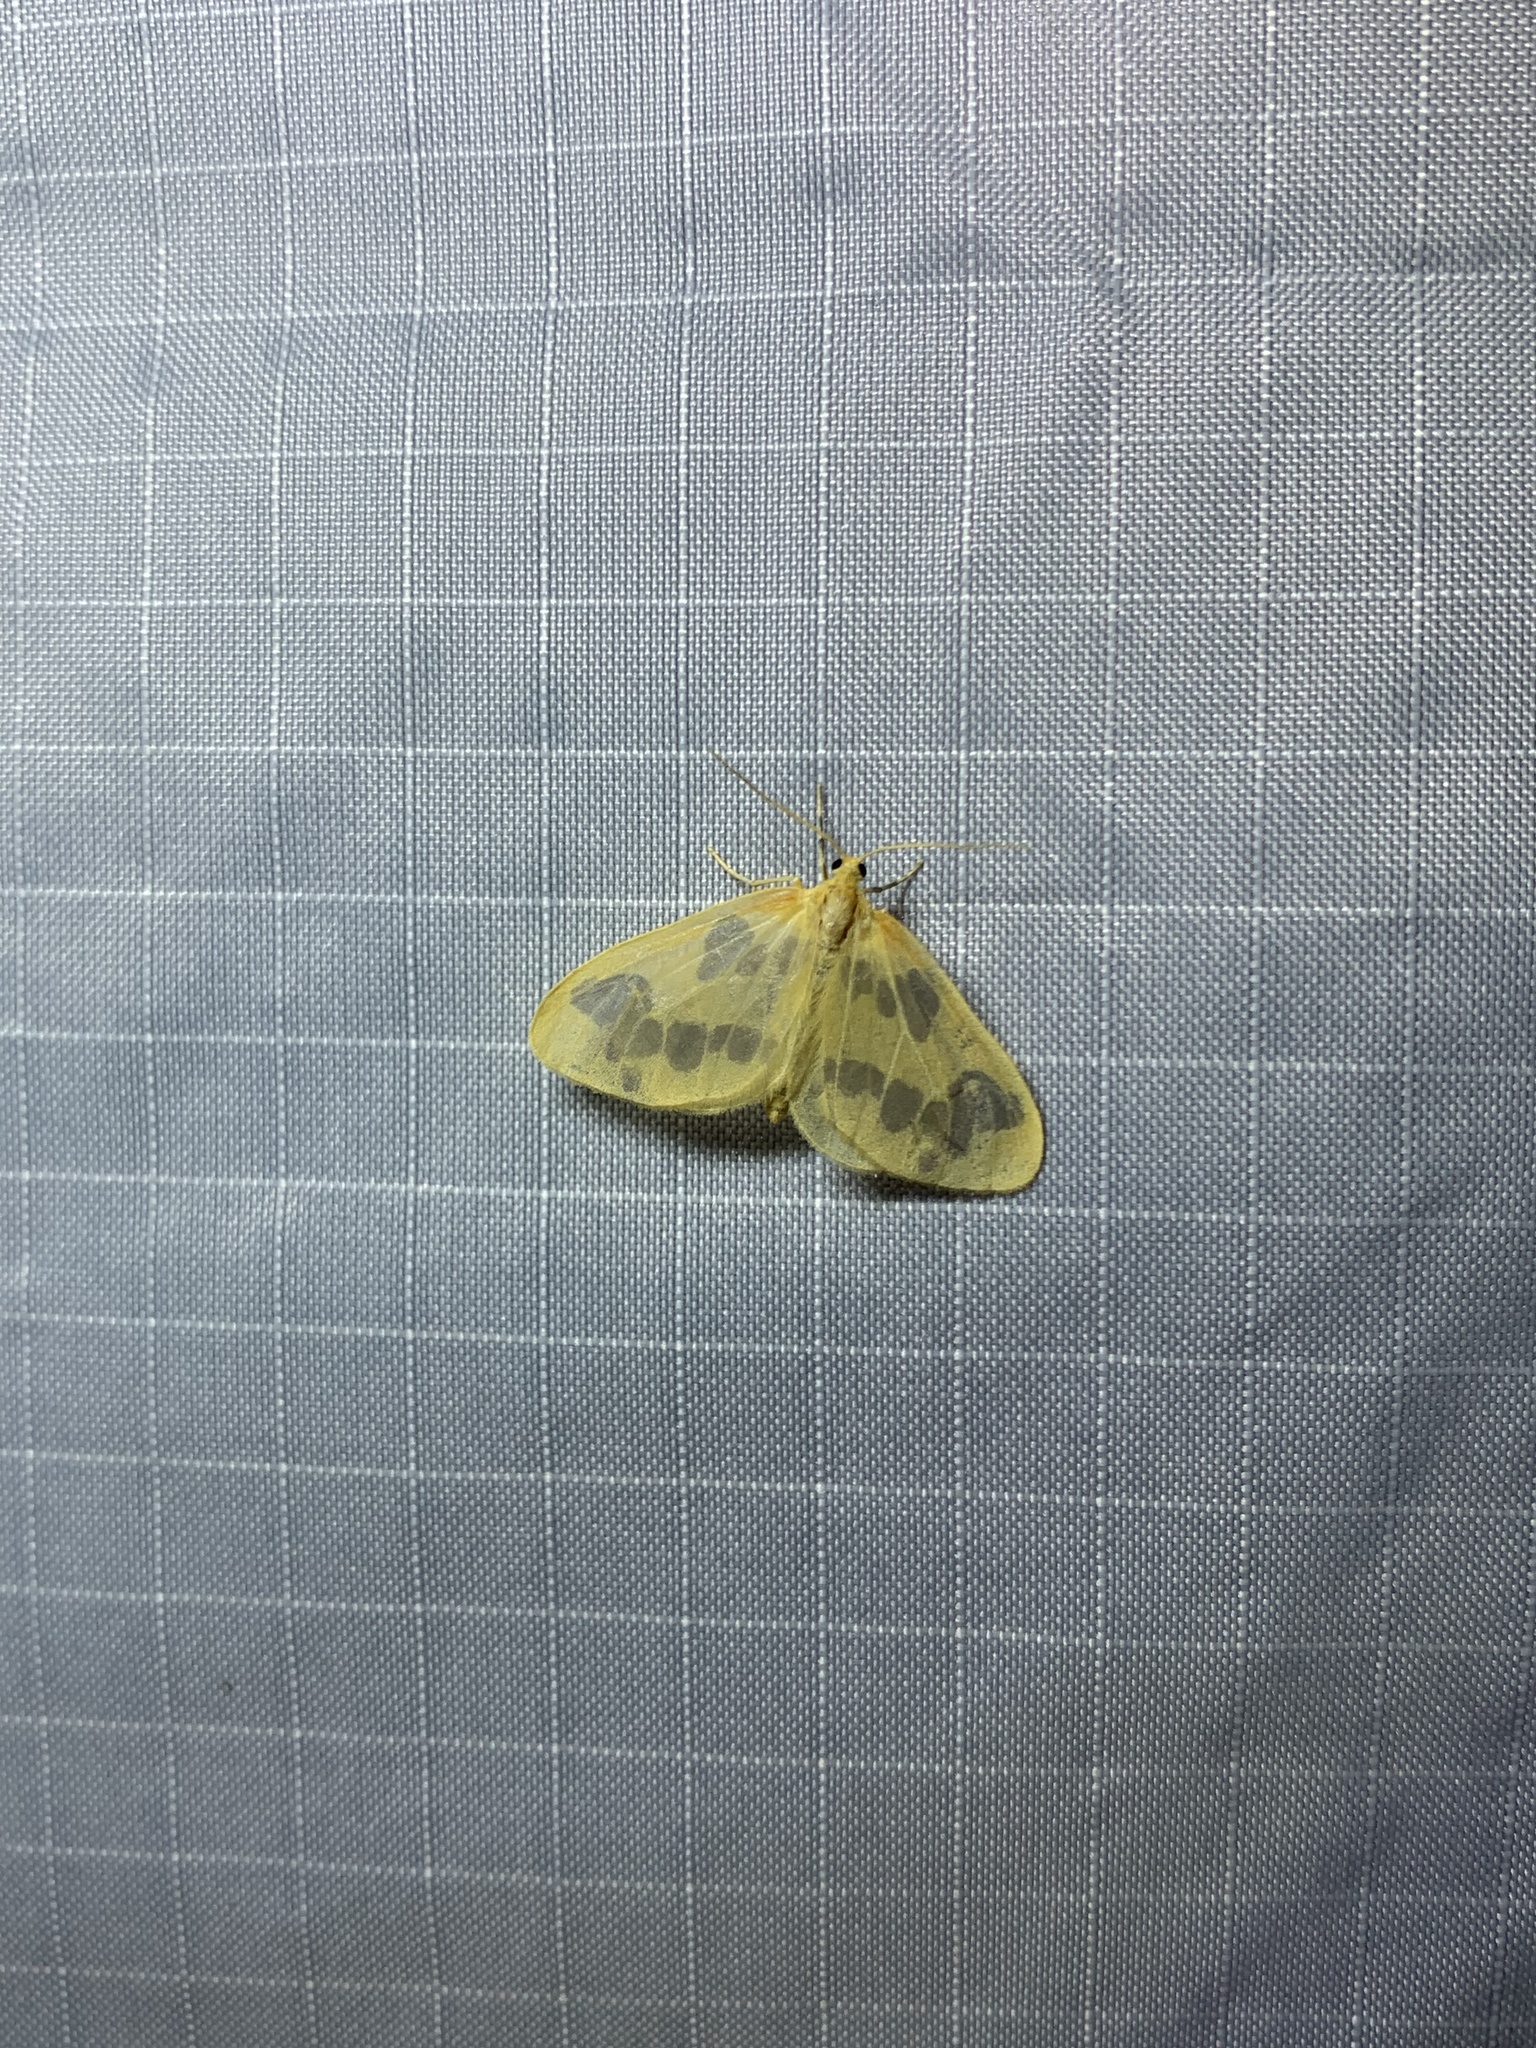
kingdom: Animalia
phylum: Arthropoda
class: Insecta
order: Lepidoptera
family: Geometridae
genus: Eubaphe
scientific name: Eubaphe mendica
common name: Beggar
